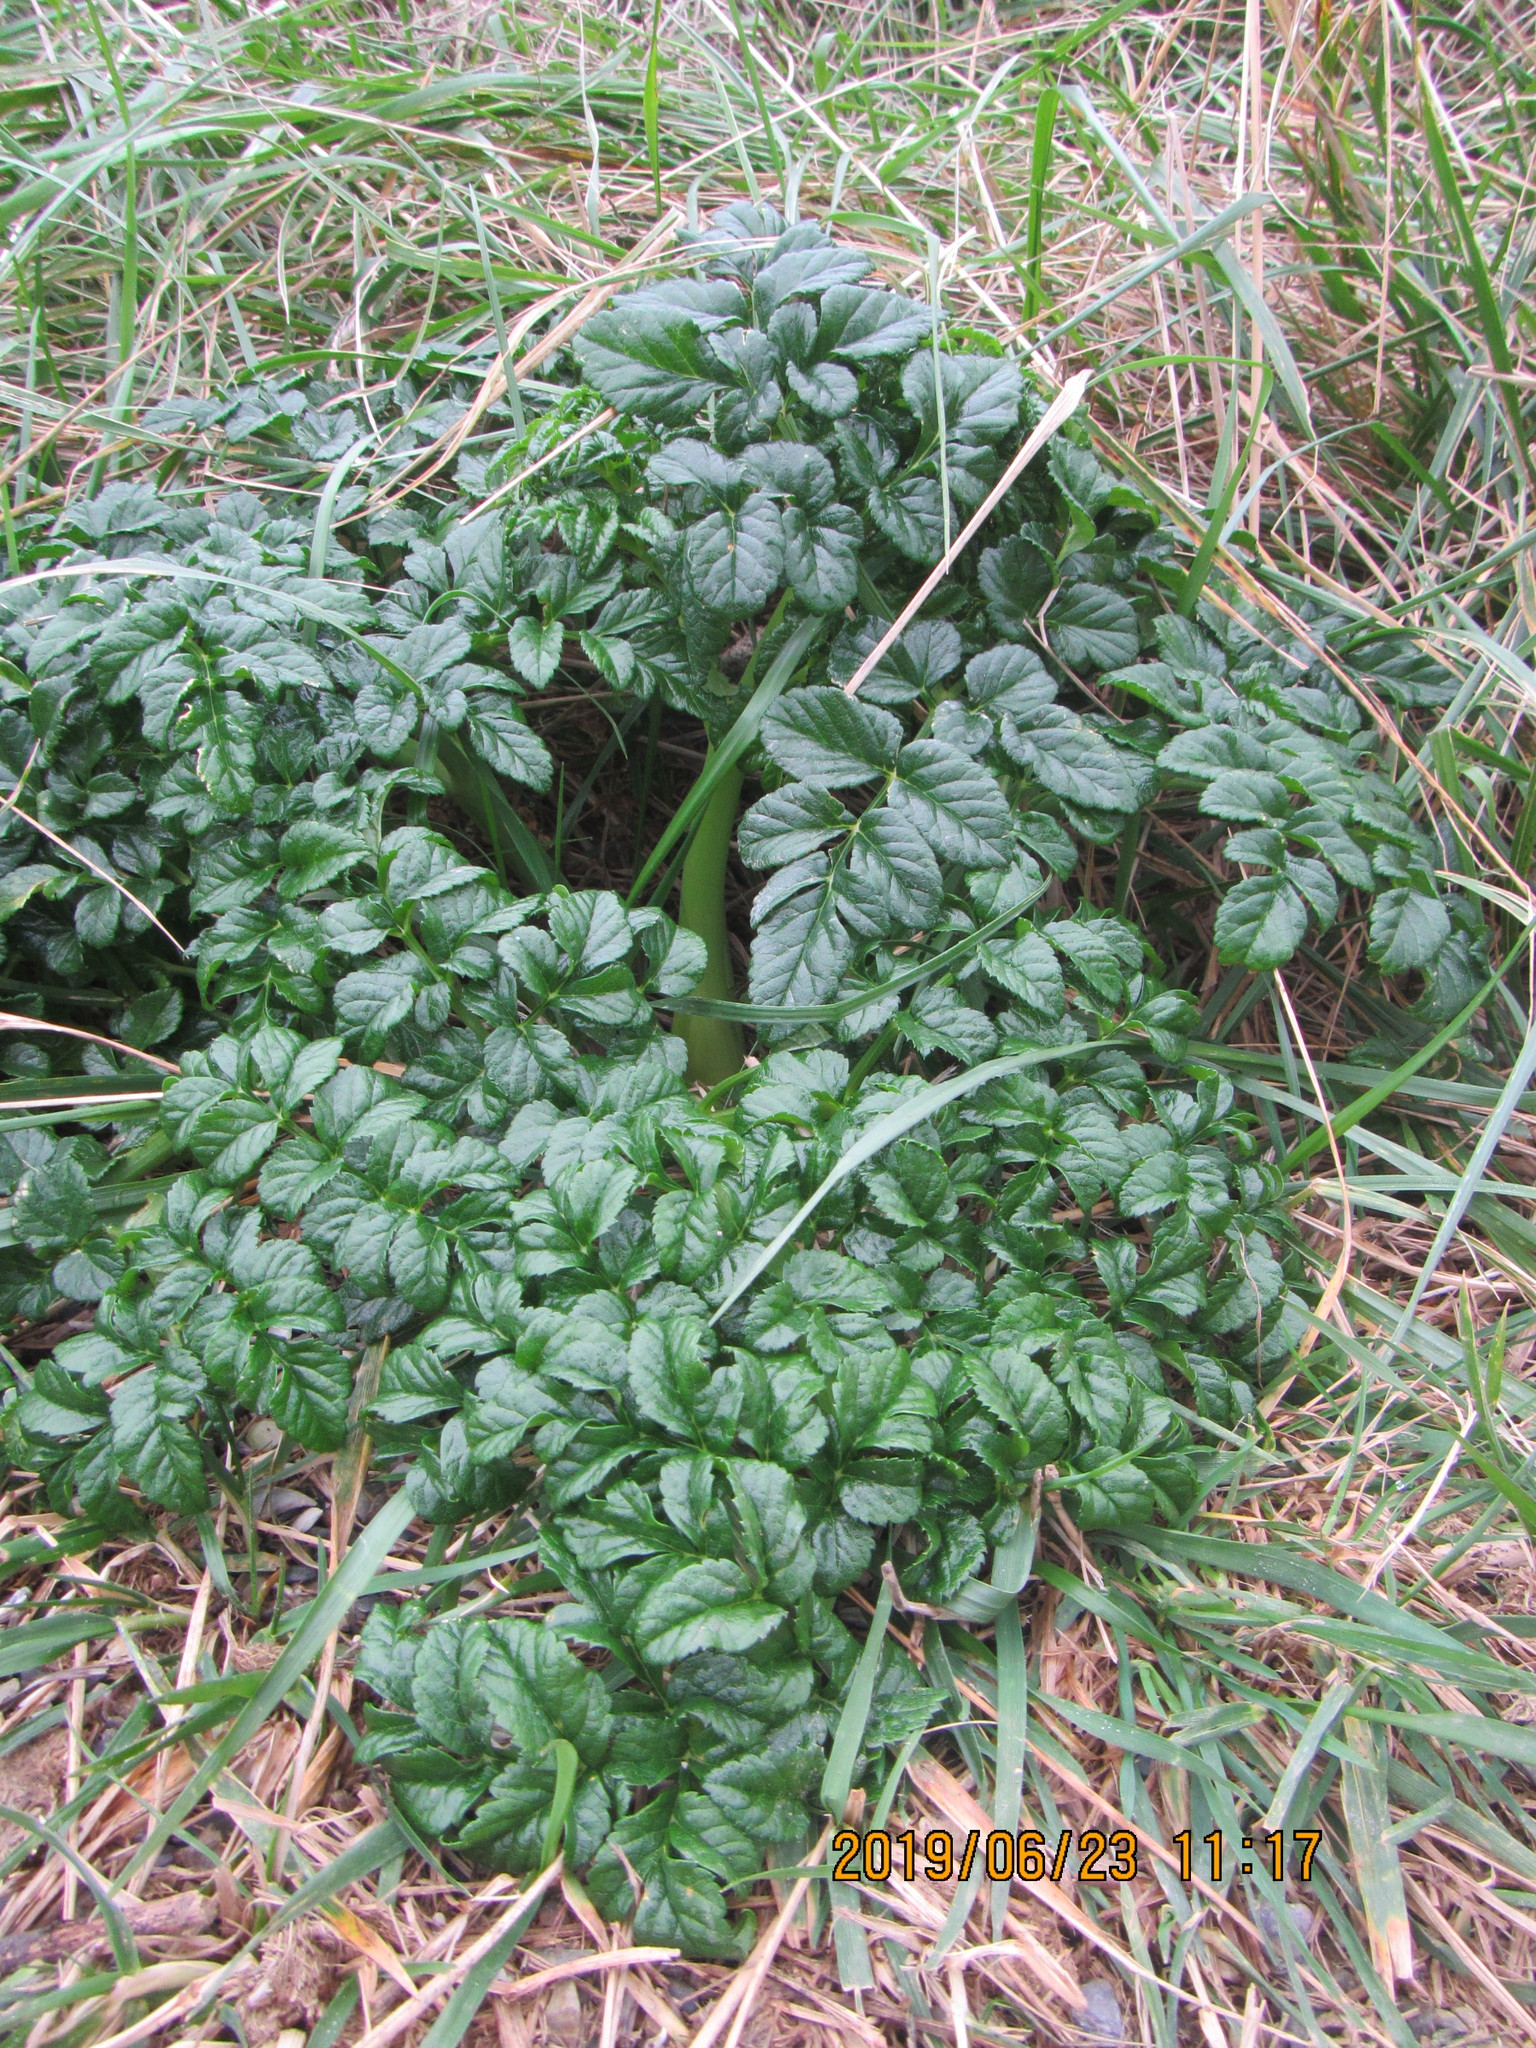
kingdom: Plantae
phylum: Tracheophyta
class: Magnoliopsida
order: Apiales
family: Apiaceae
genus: Angelica
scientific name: Angelica pachycarpa
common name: Portuguese angelica
